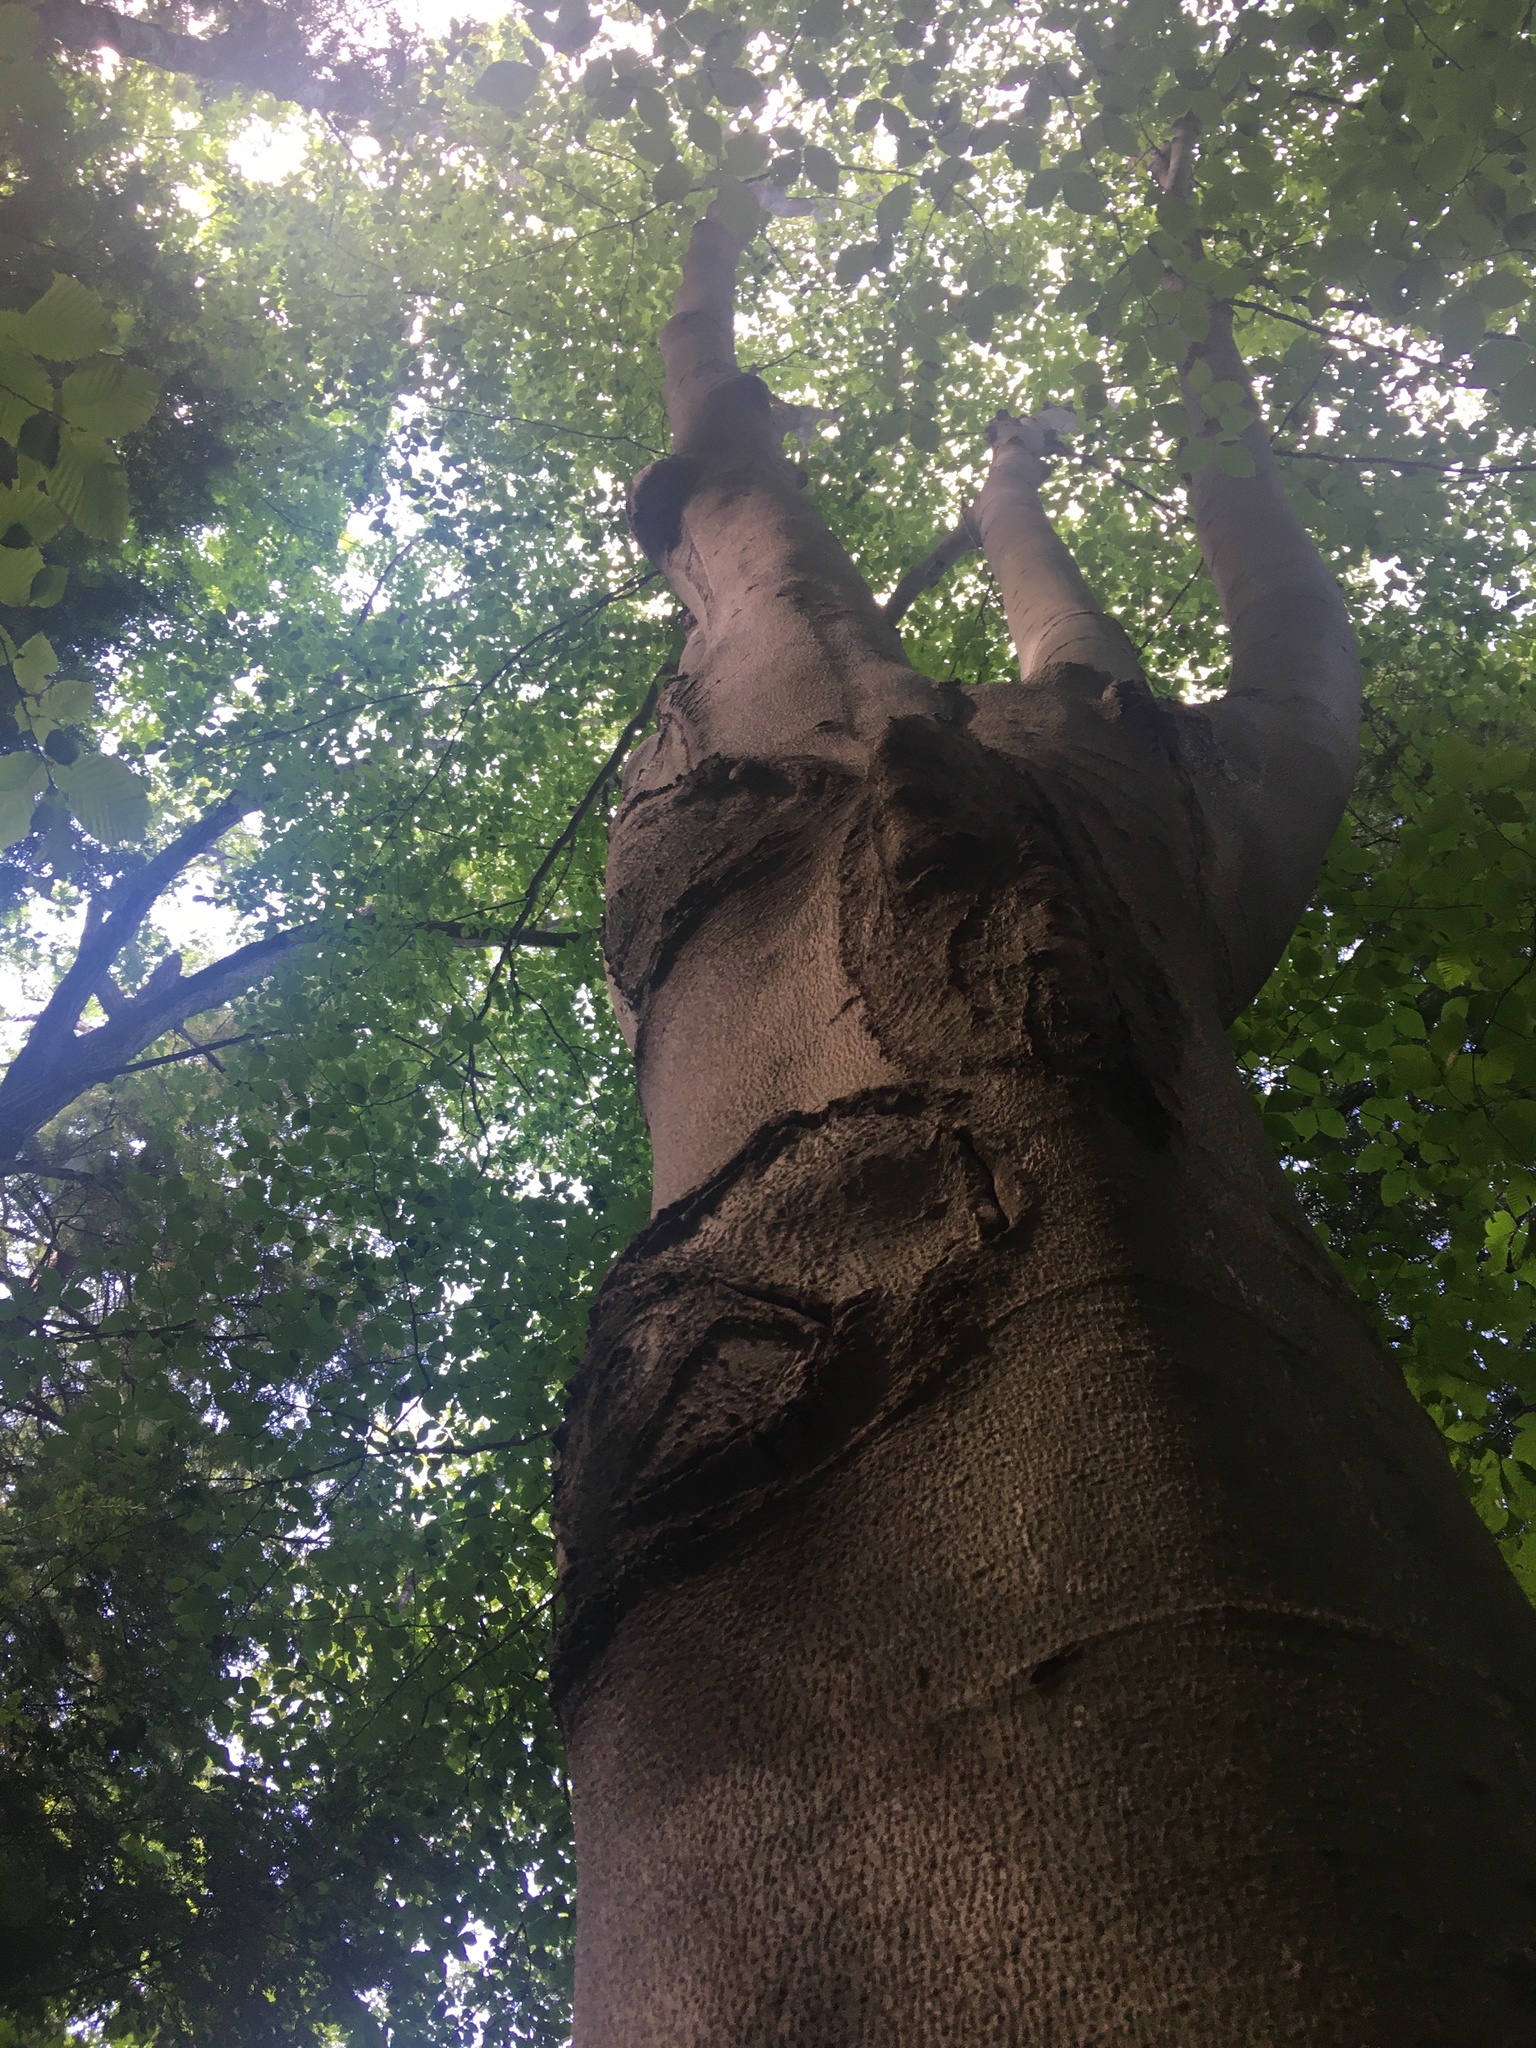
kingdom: Plantae
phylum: Tracheophyta
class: Magnoliopsida
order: Fagales
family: Fagaceae
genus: Fagus
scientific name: Fagus grandifolia
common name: American beech
